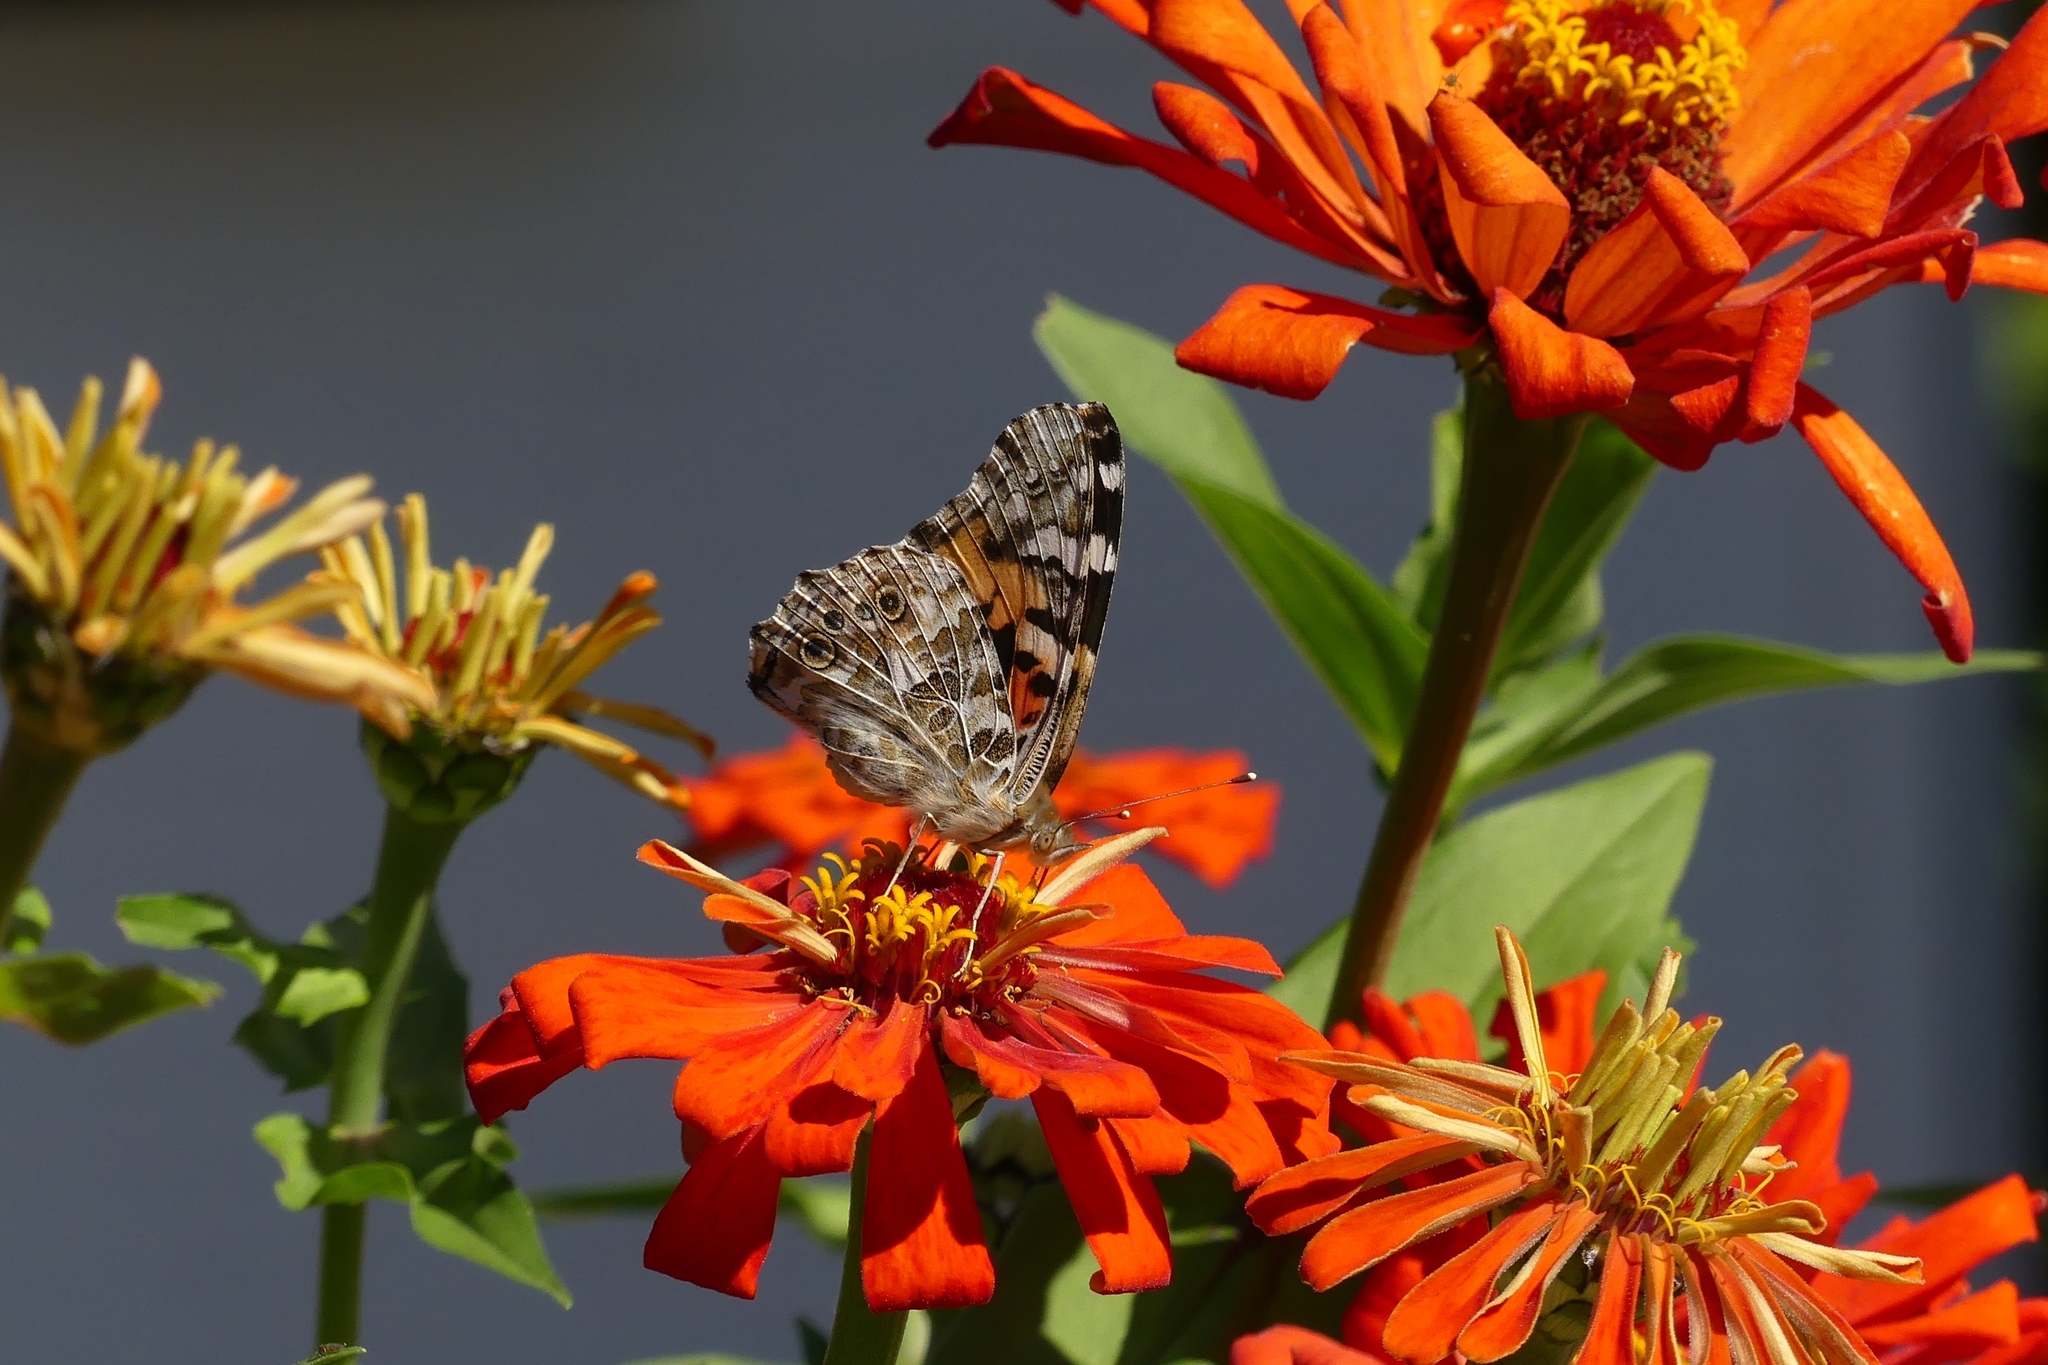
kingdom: Animalia
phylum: Arthropoda
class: Insecta
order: Lepidoptera
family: Nymphalidae
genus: Vanessa
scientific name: Vanessa cardui
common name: Painted lady
